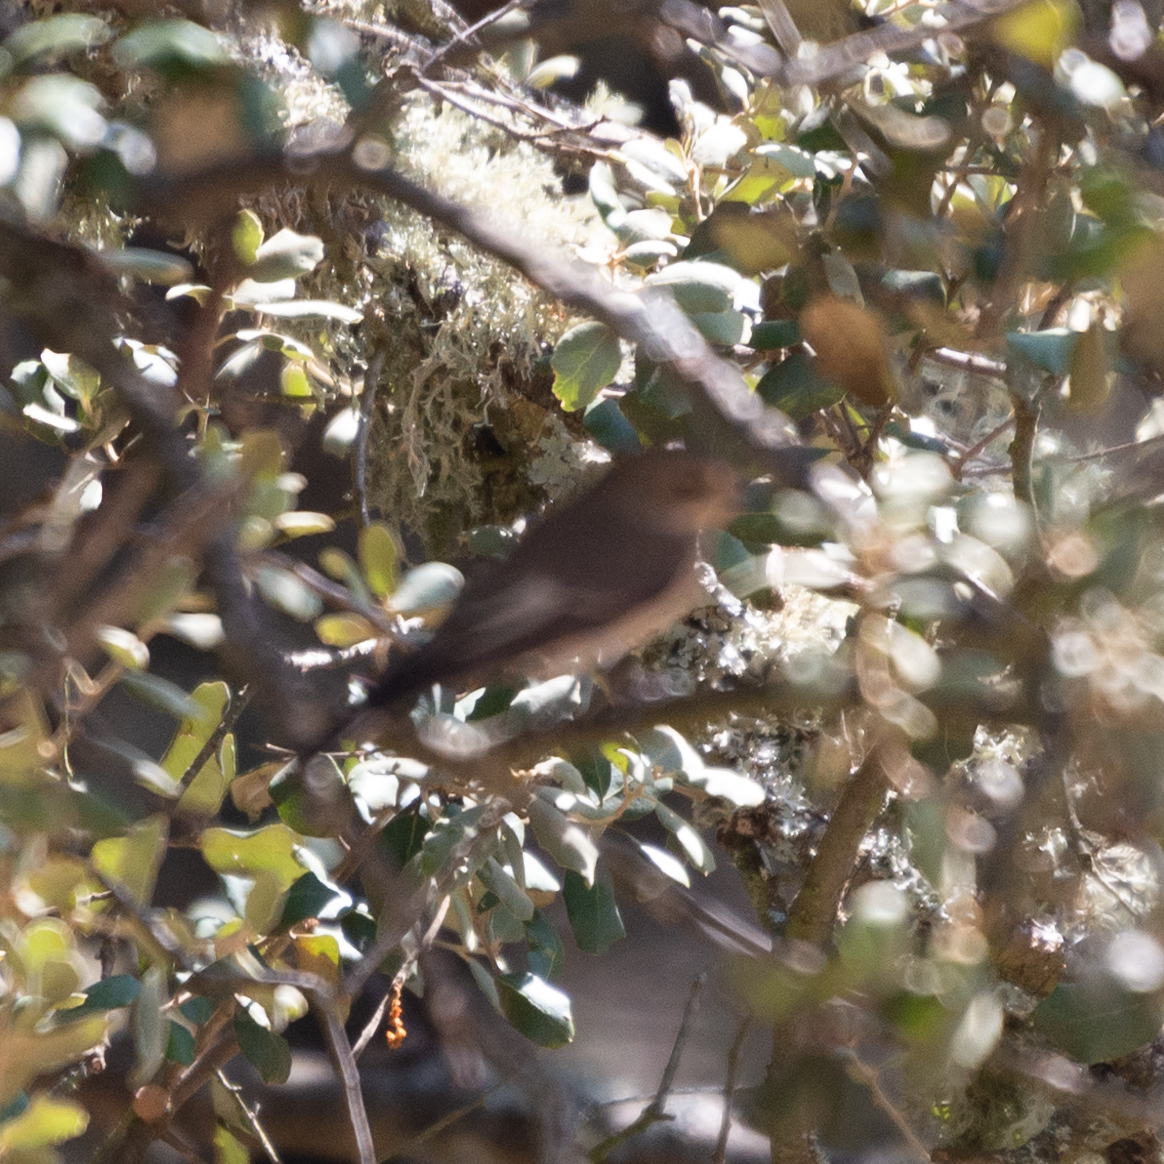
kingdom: Animalia
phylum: Chordata
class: Aves
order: Passeriformes
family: Muscicapidae
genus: Ficedula
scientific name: Ficedula hypoleuca
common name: European pied flycatcher
